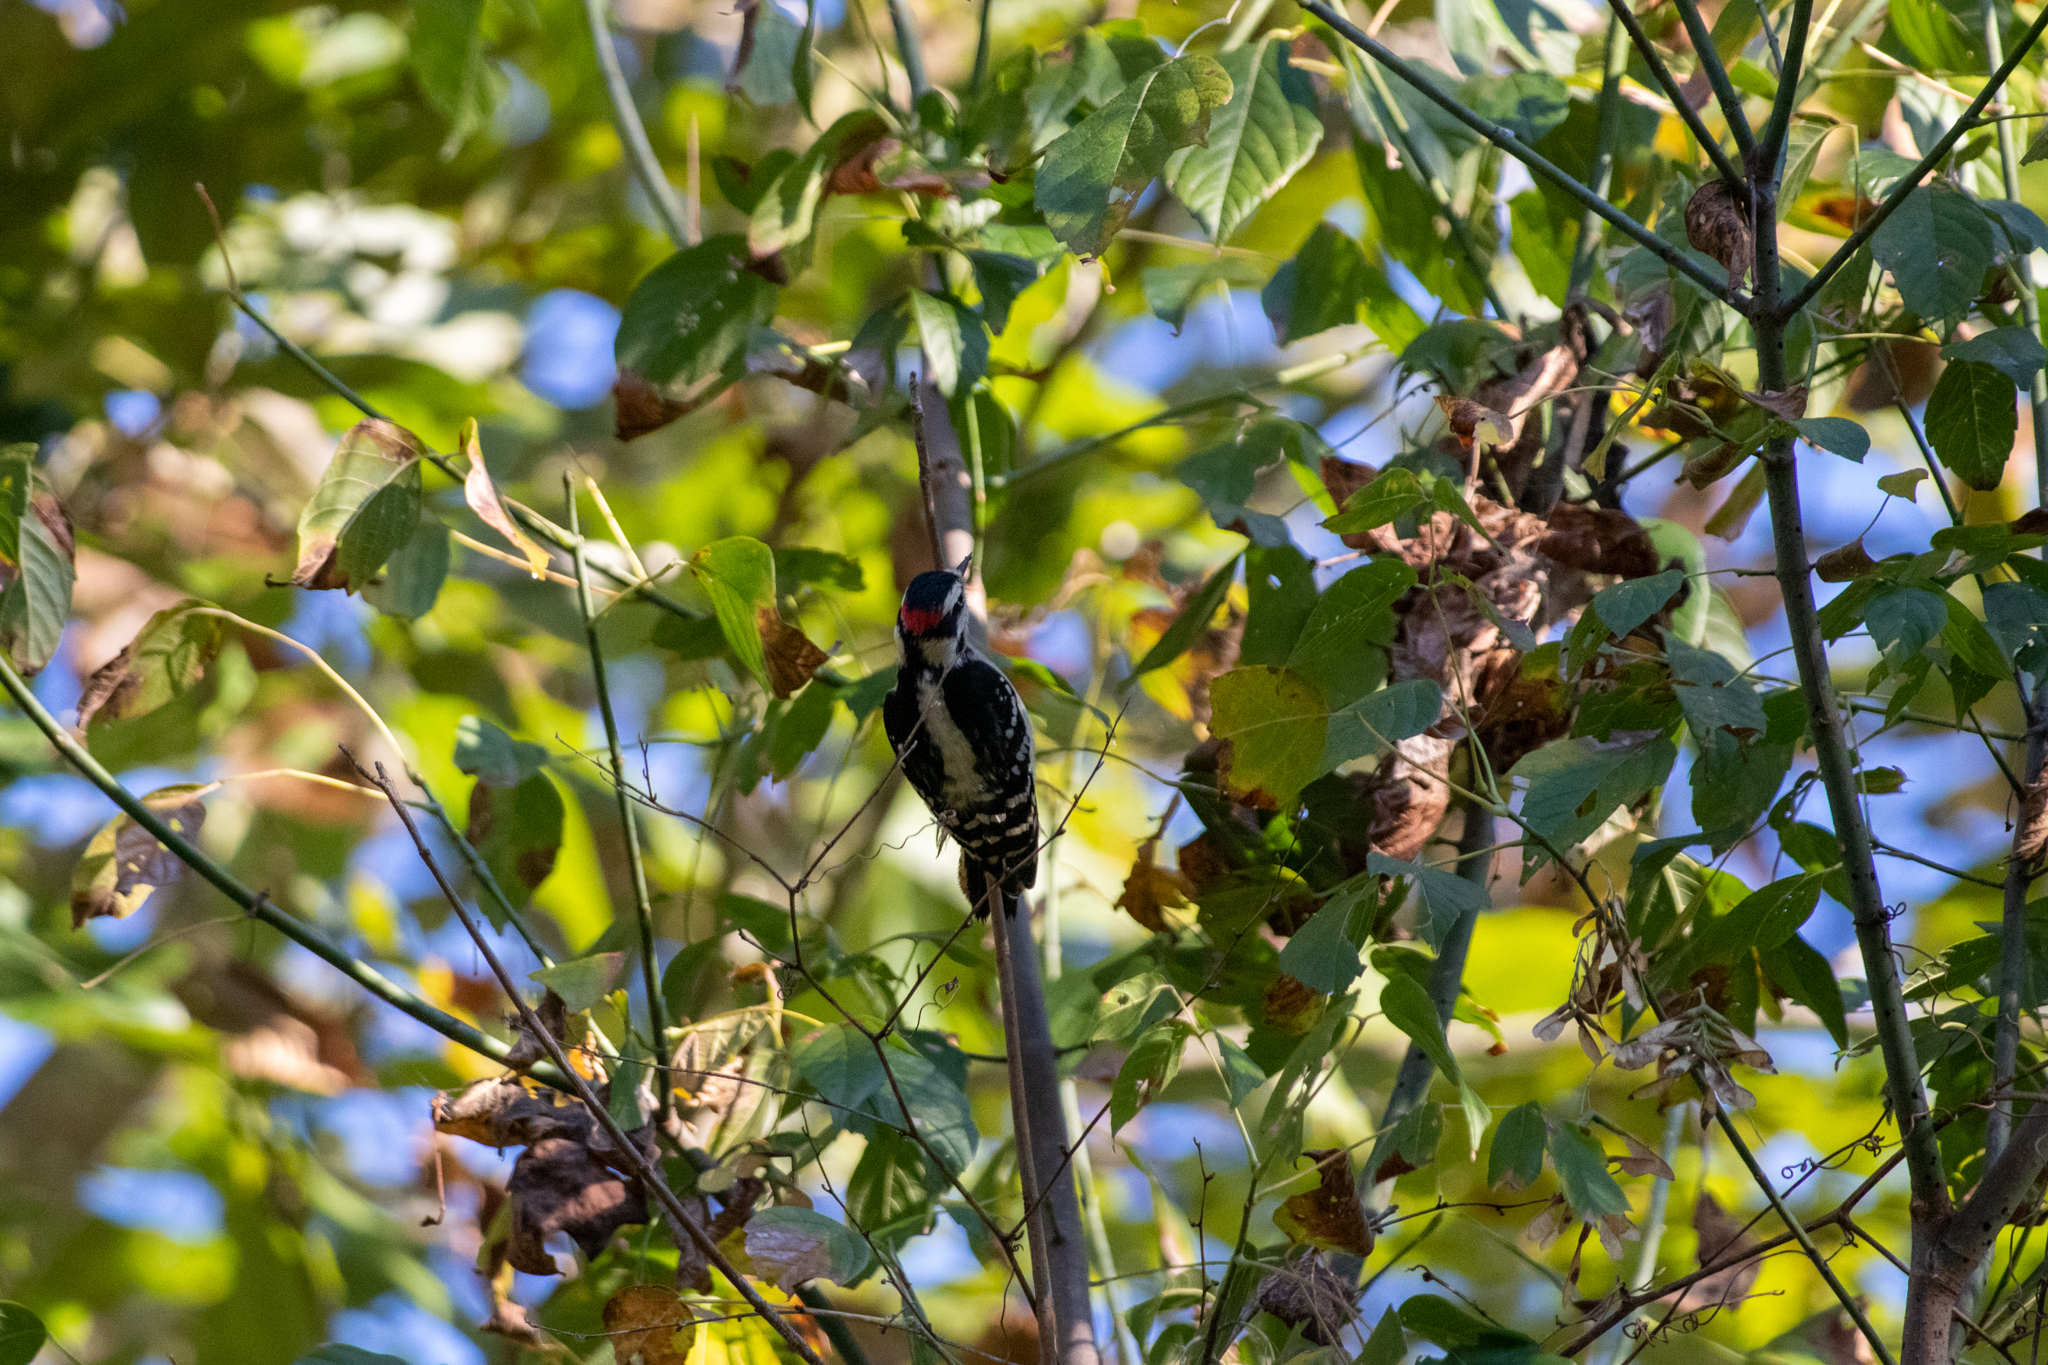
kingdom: Animalia
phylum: Chordata
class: Aves
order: Piciformes
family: Picidae
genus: Dryobates
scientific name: Dryobates pubescens
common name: Downy woodpecker
